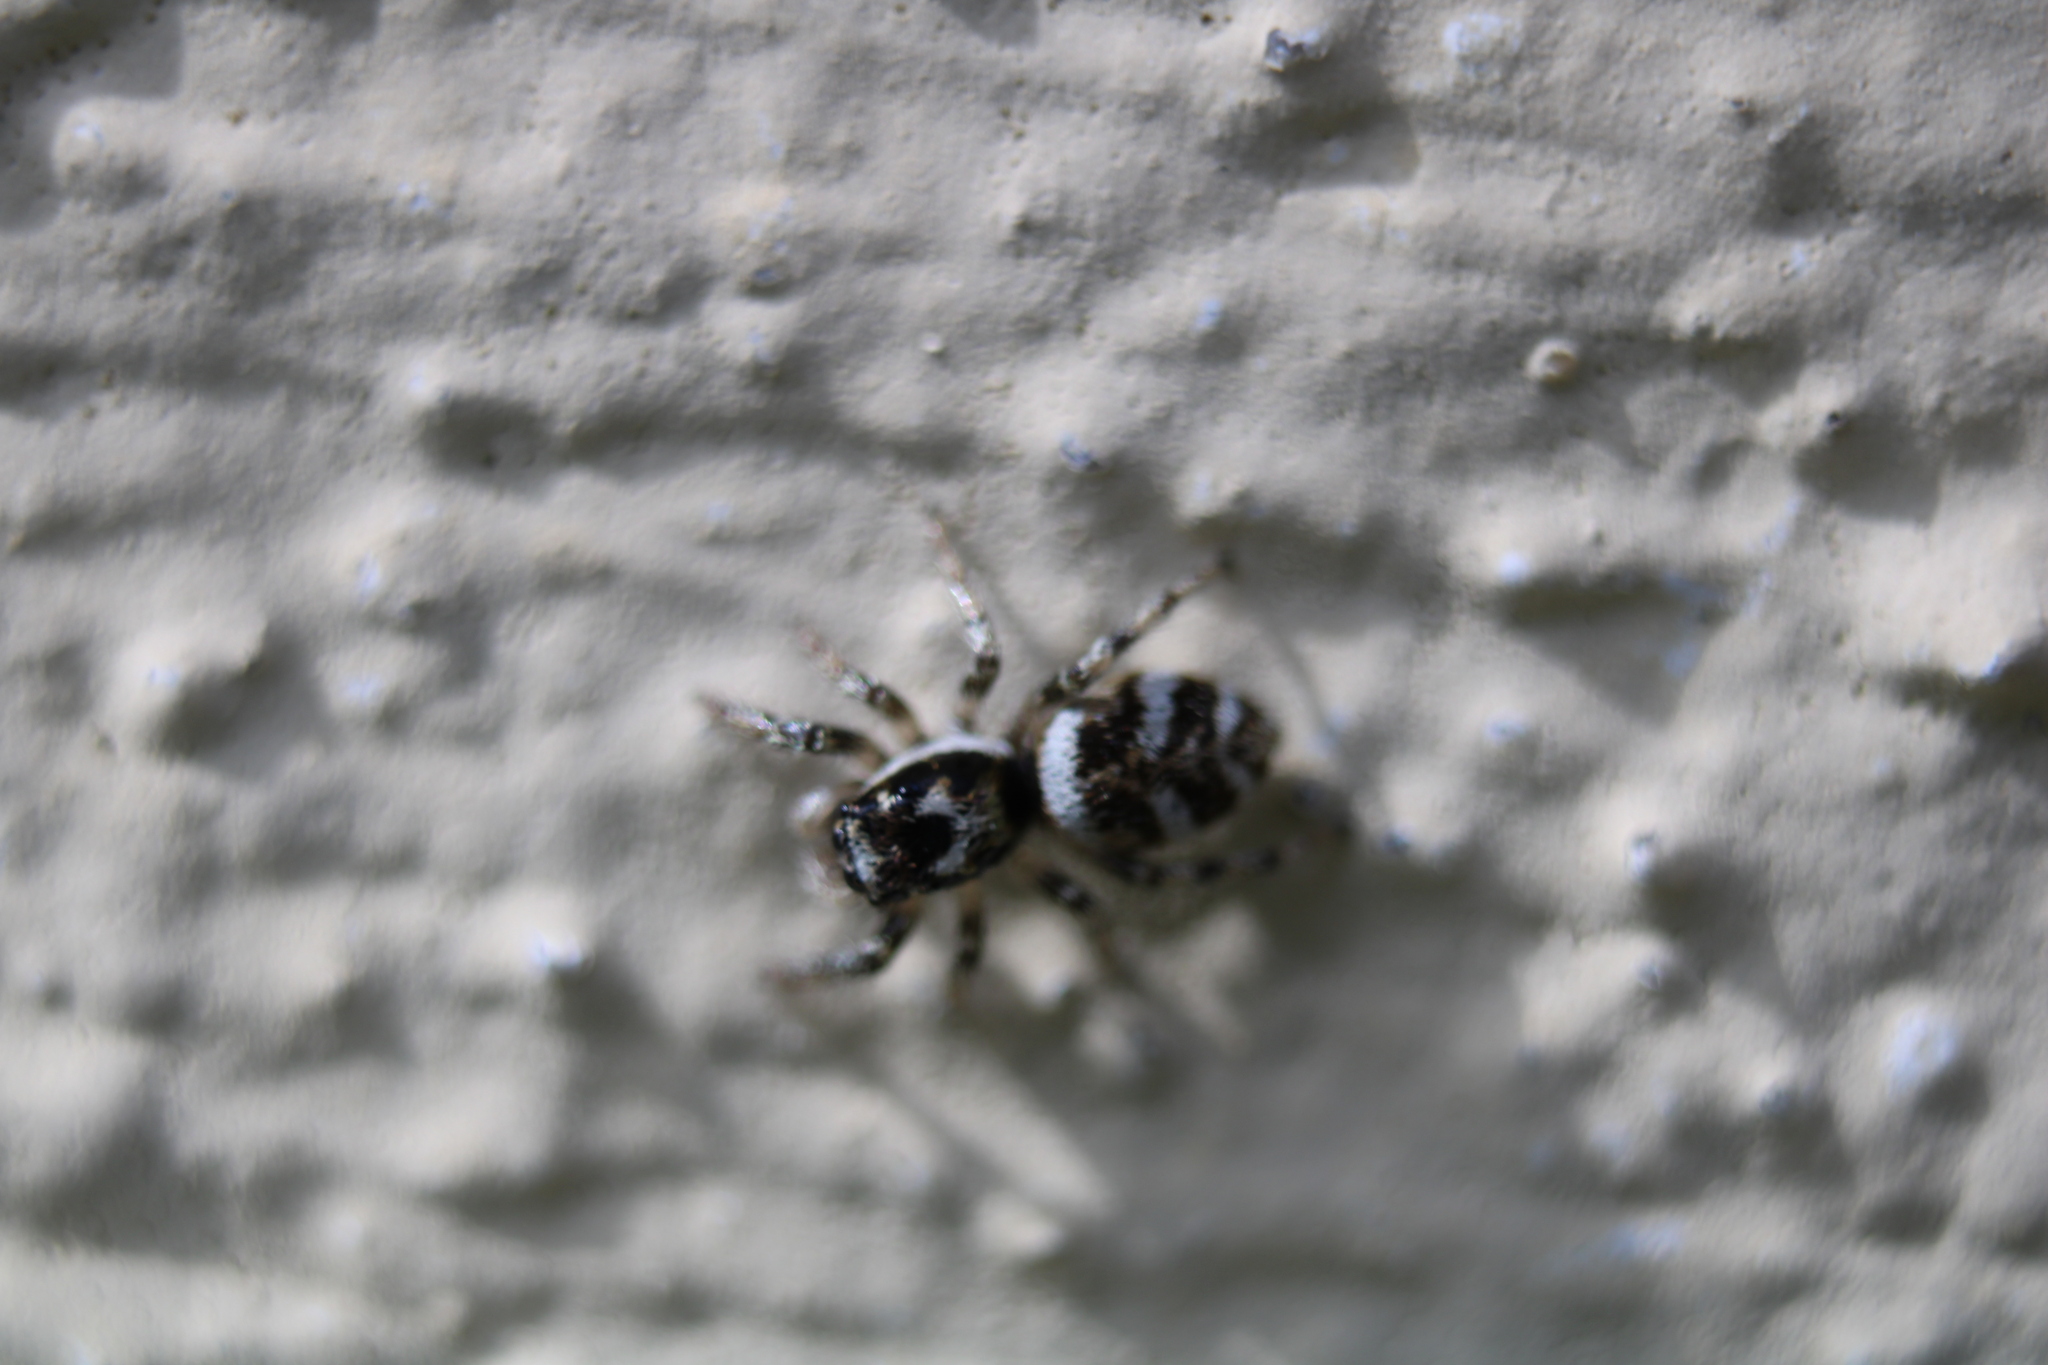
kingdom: Animalia
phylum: Arthropoda
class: Arachnida
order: Araneae
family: Salticidae
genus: Salticus
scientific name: Salticus scenicus
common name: Zebra jumper
